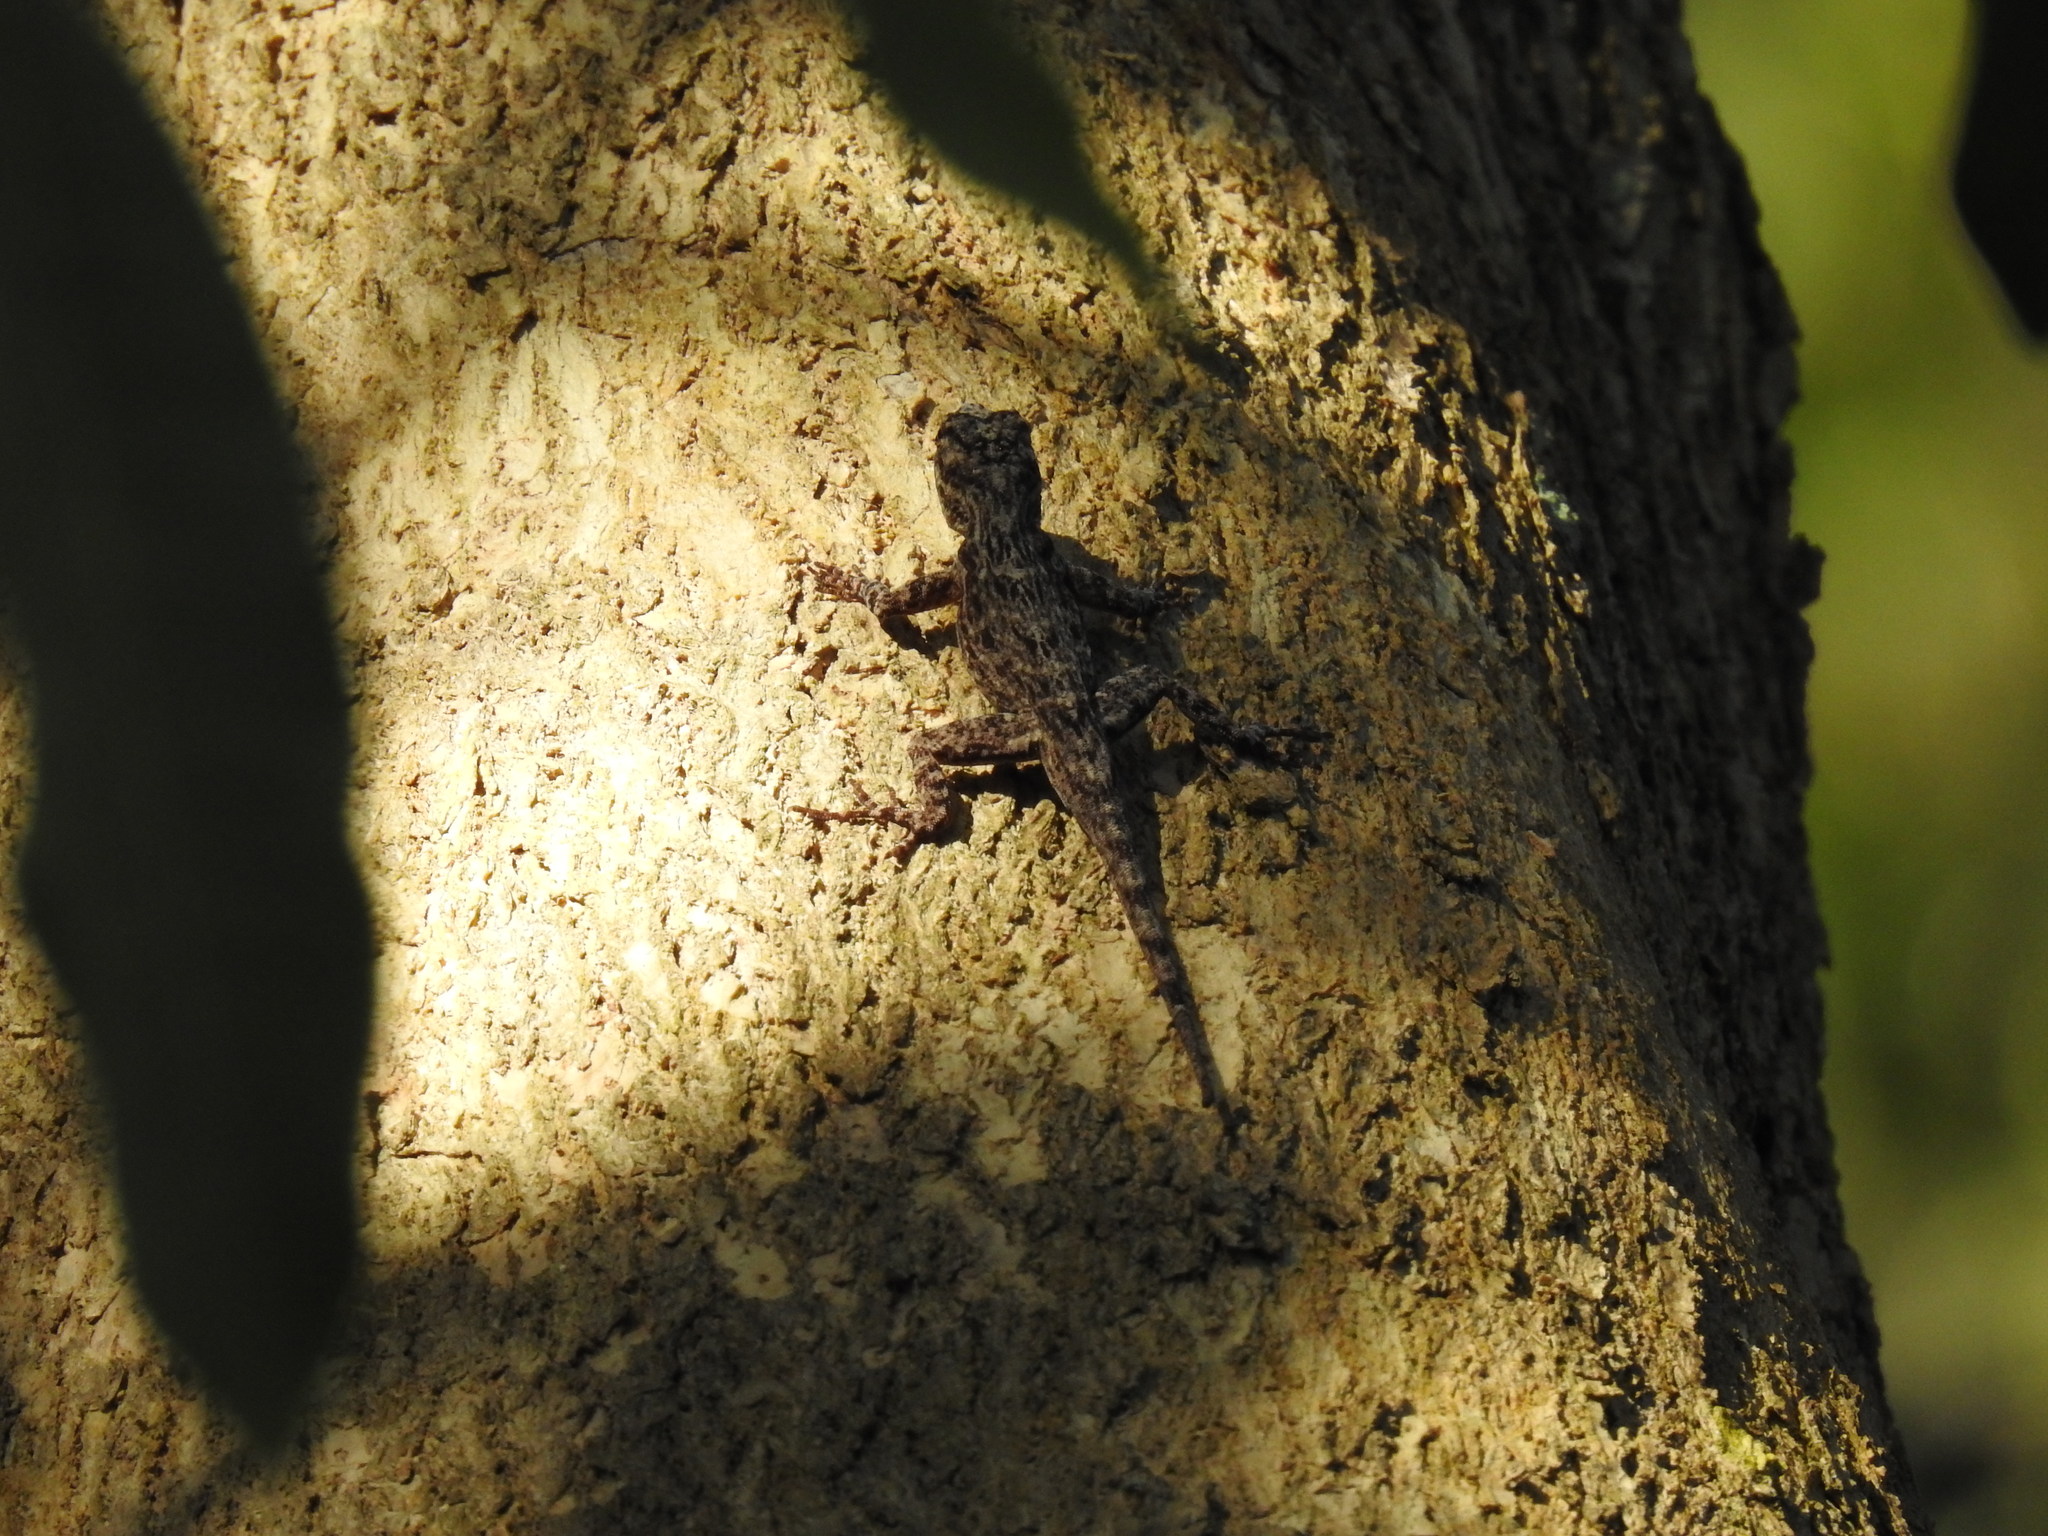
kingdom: Animalia
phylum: Chordata
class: Squamata
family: Dactyloidae
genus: Anolis
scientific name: Anolis distichus
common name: Bark anole
